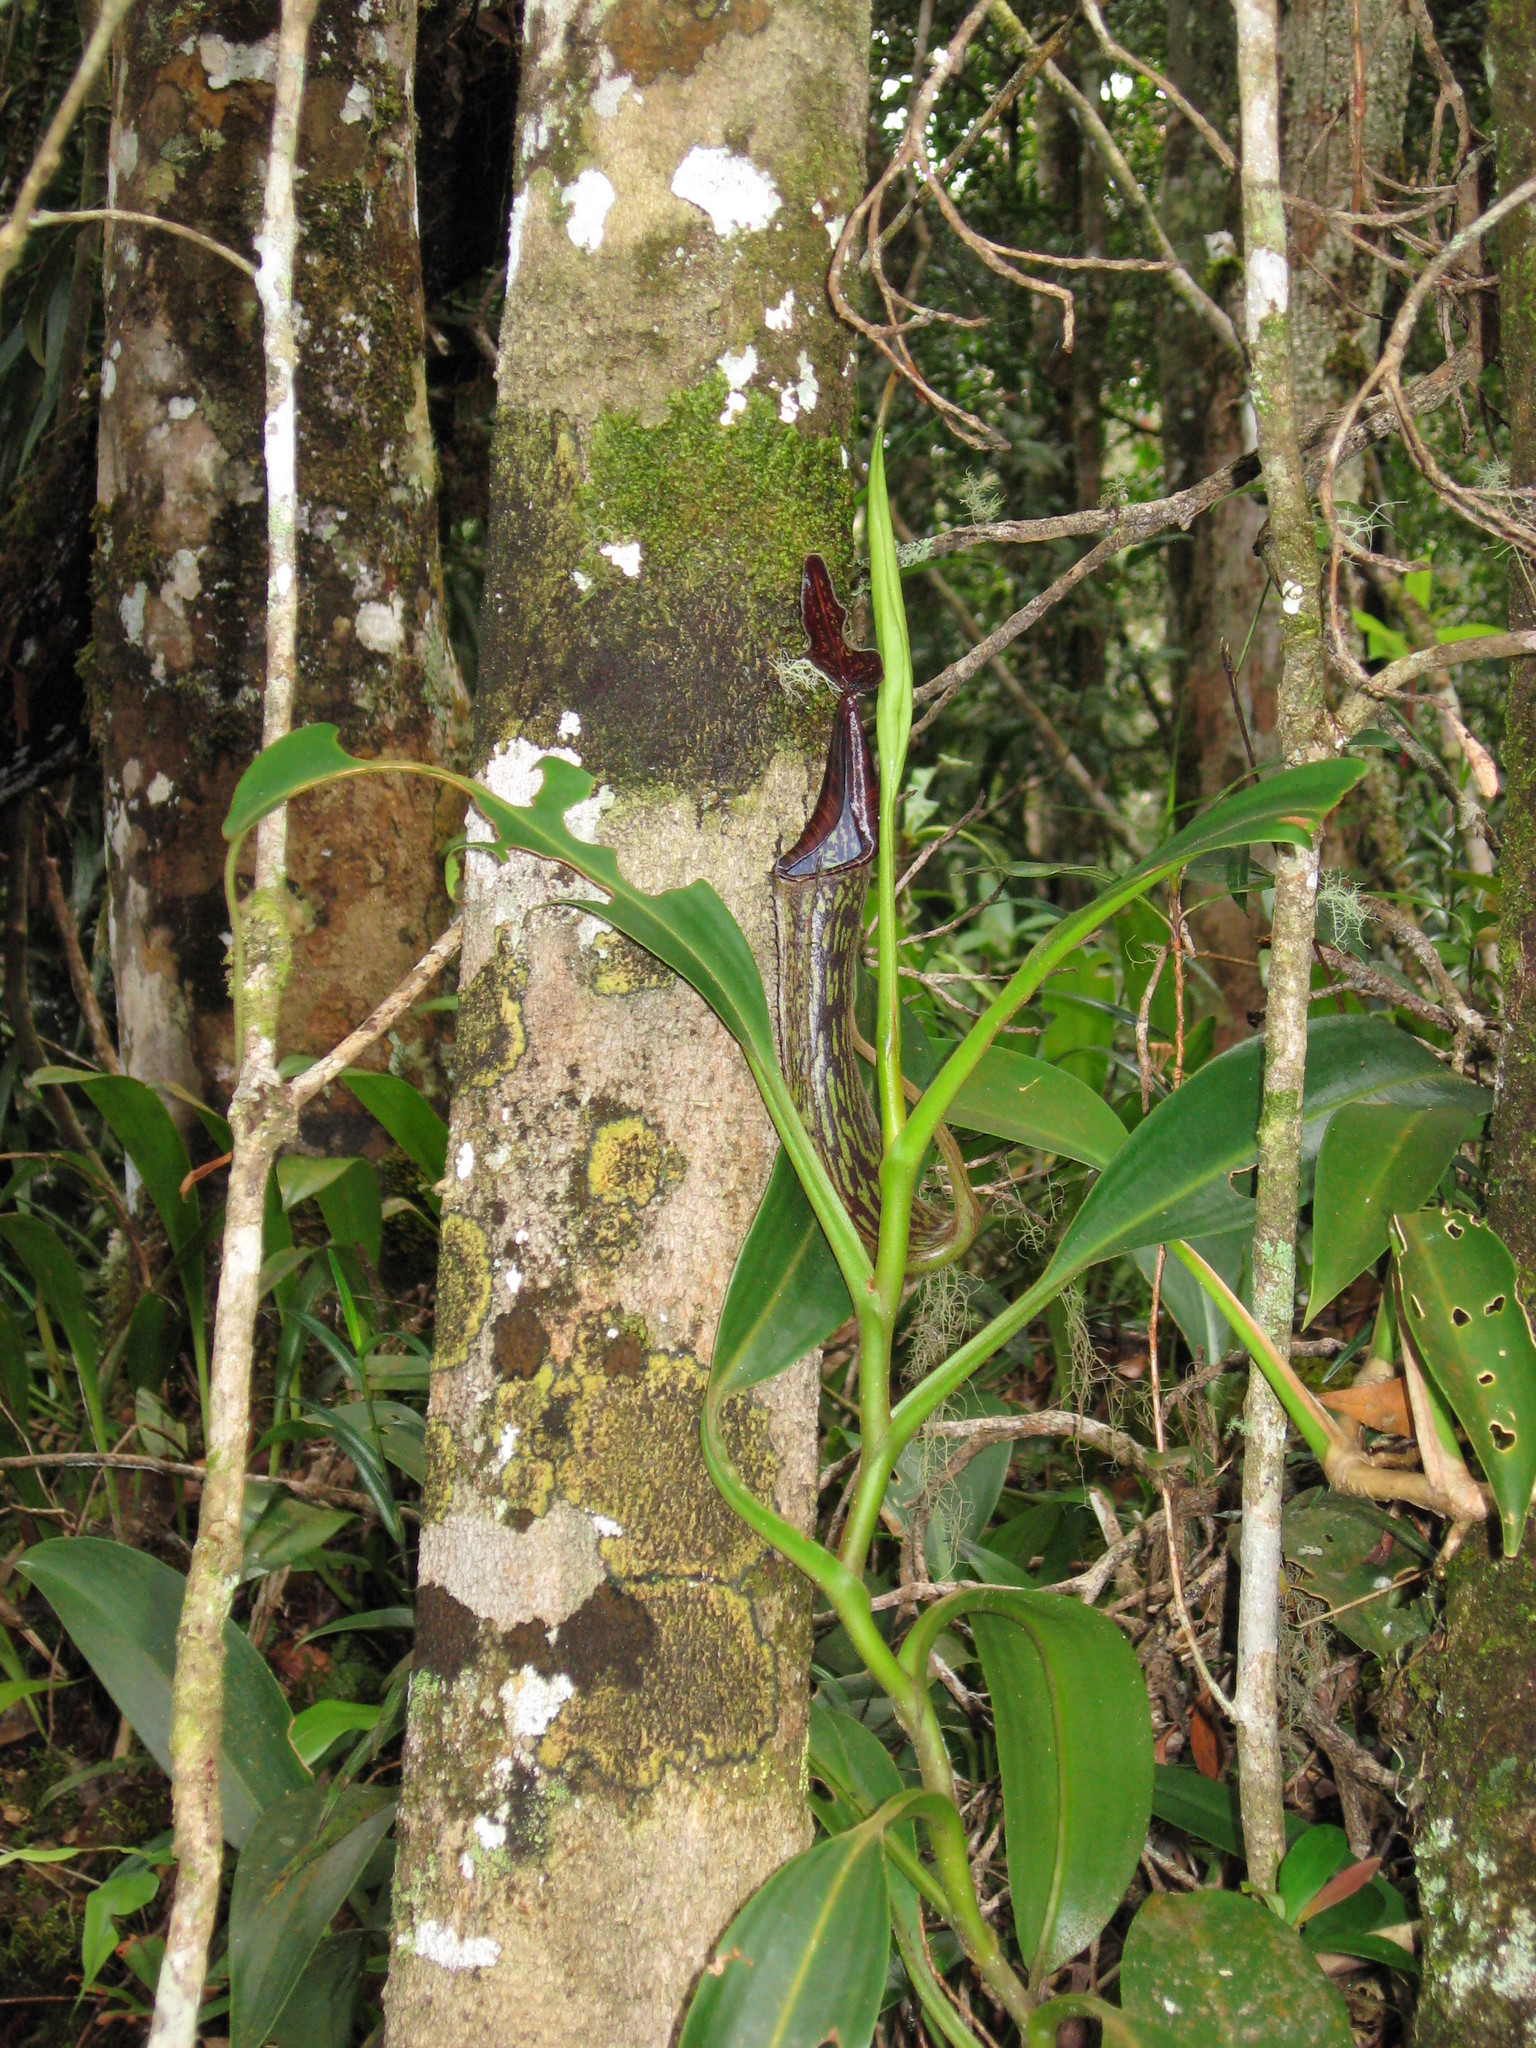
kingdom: Plantae
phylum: Tracheophyta
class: Magnoliopsida
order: Caryophyllales
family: Nepenthaceae
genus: Nepenthes
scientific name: Nepenthes fusca
